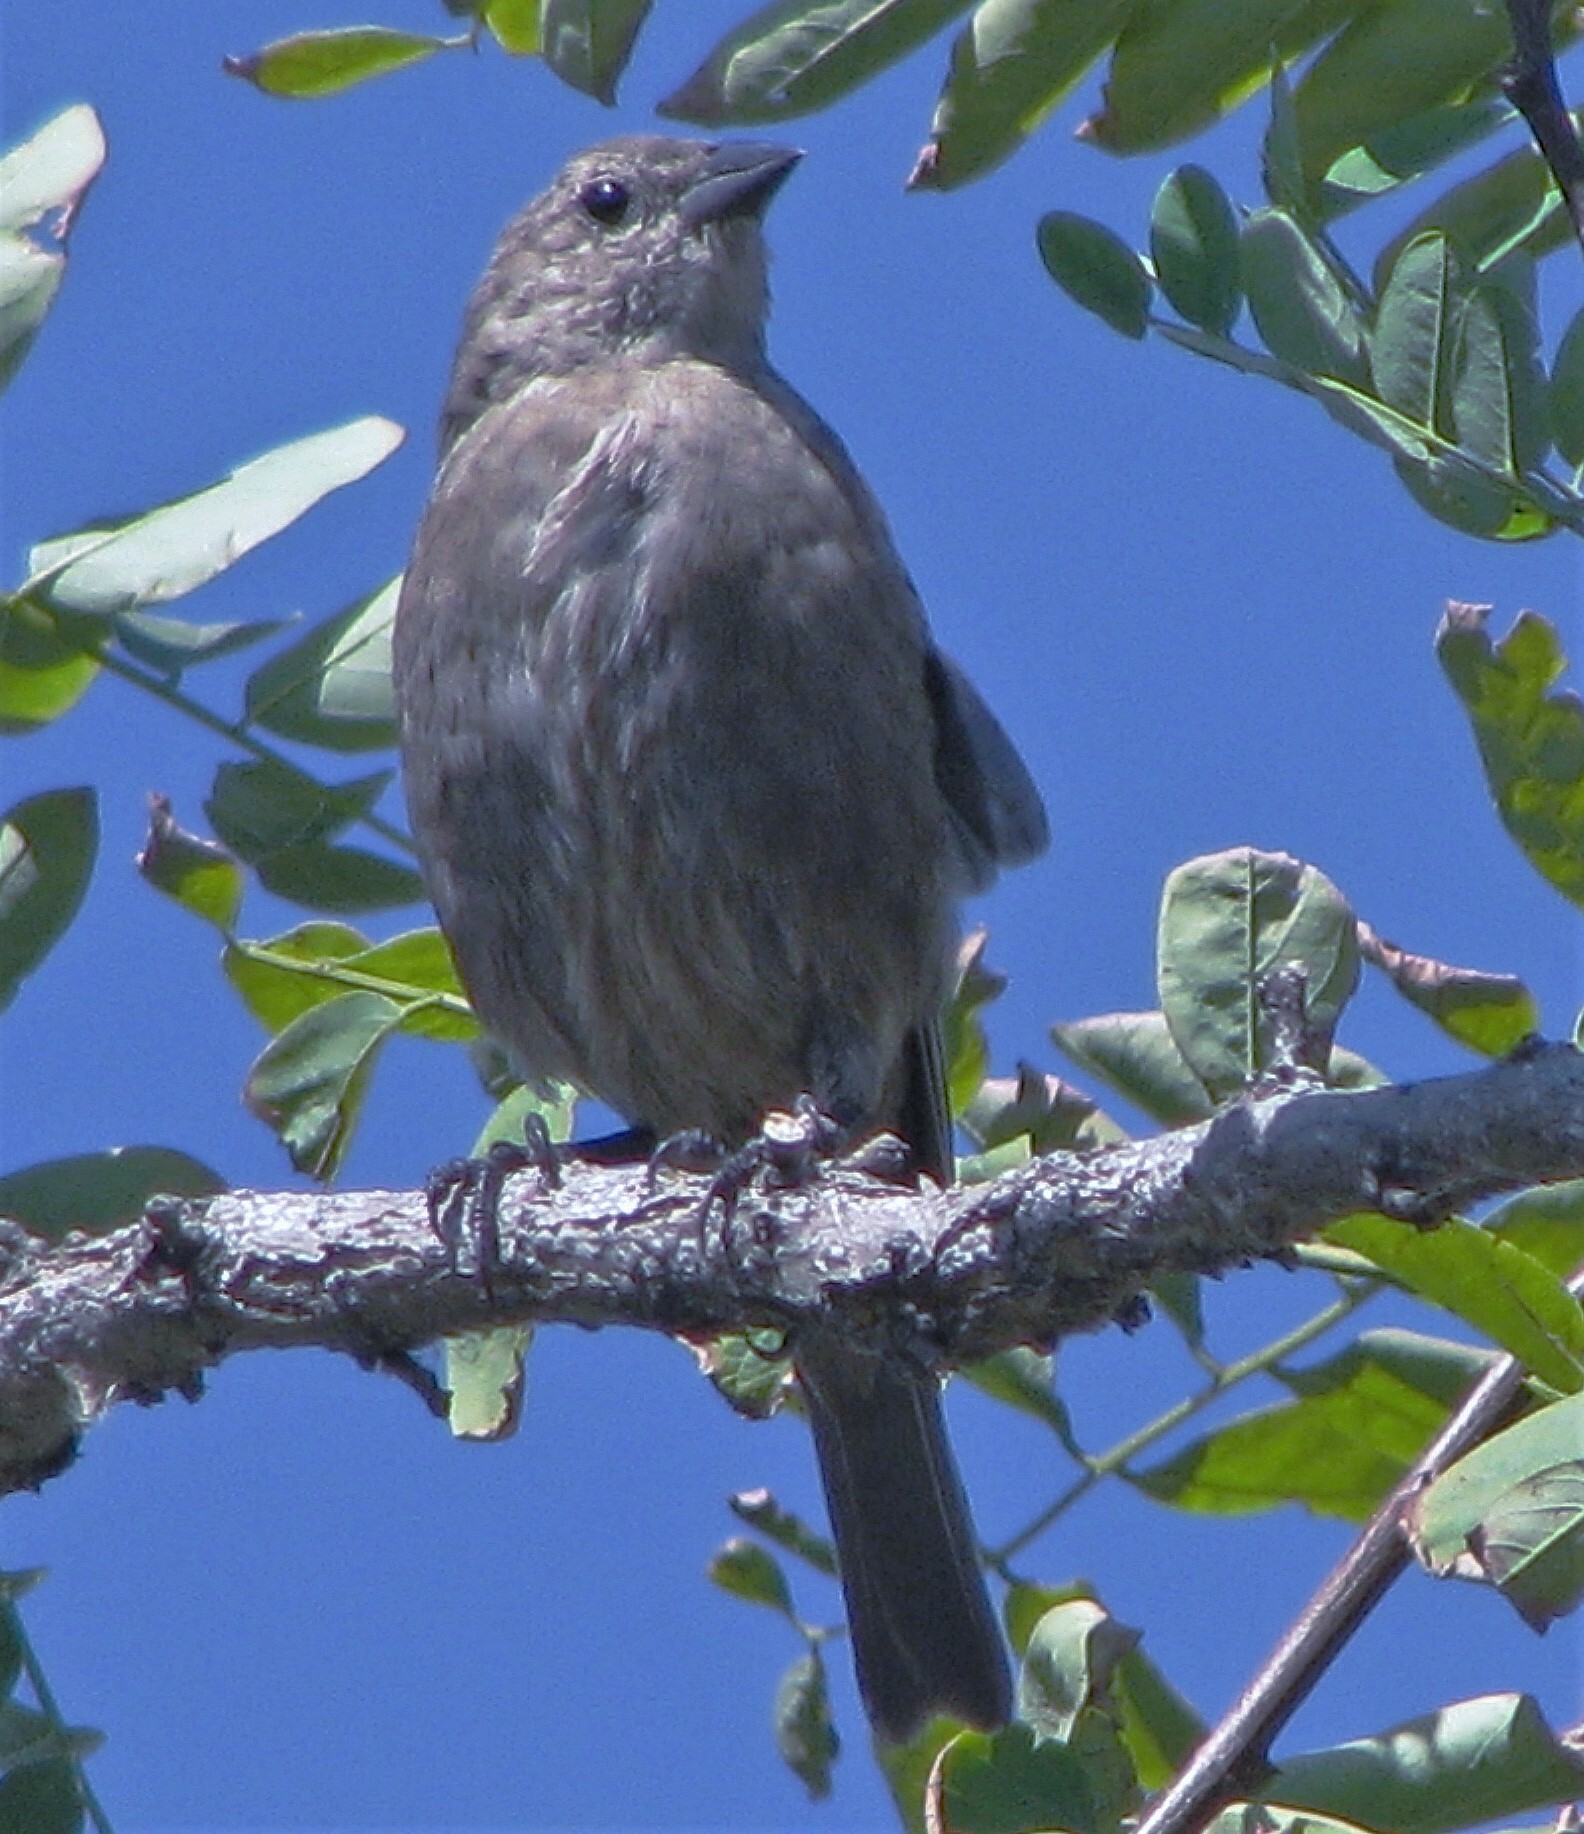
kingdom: Animalia
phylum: Chordata
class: Aves
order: Passeriformes
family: Icteridae
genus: Molothrus
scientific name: Molothrus bonariensis
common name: Shiny cowbird
